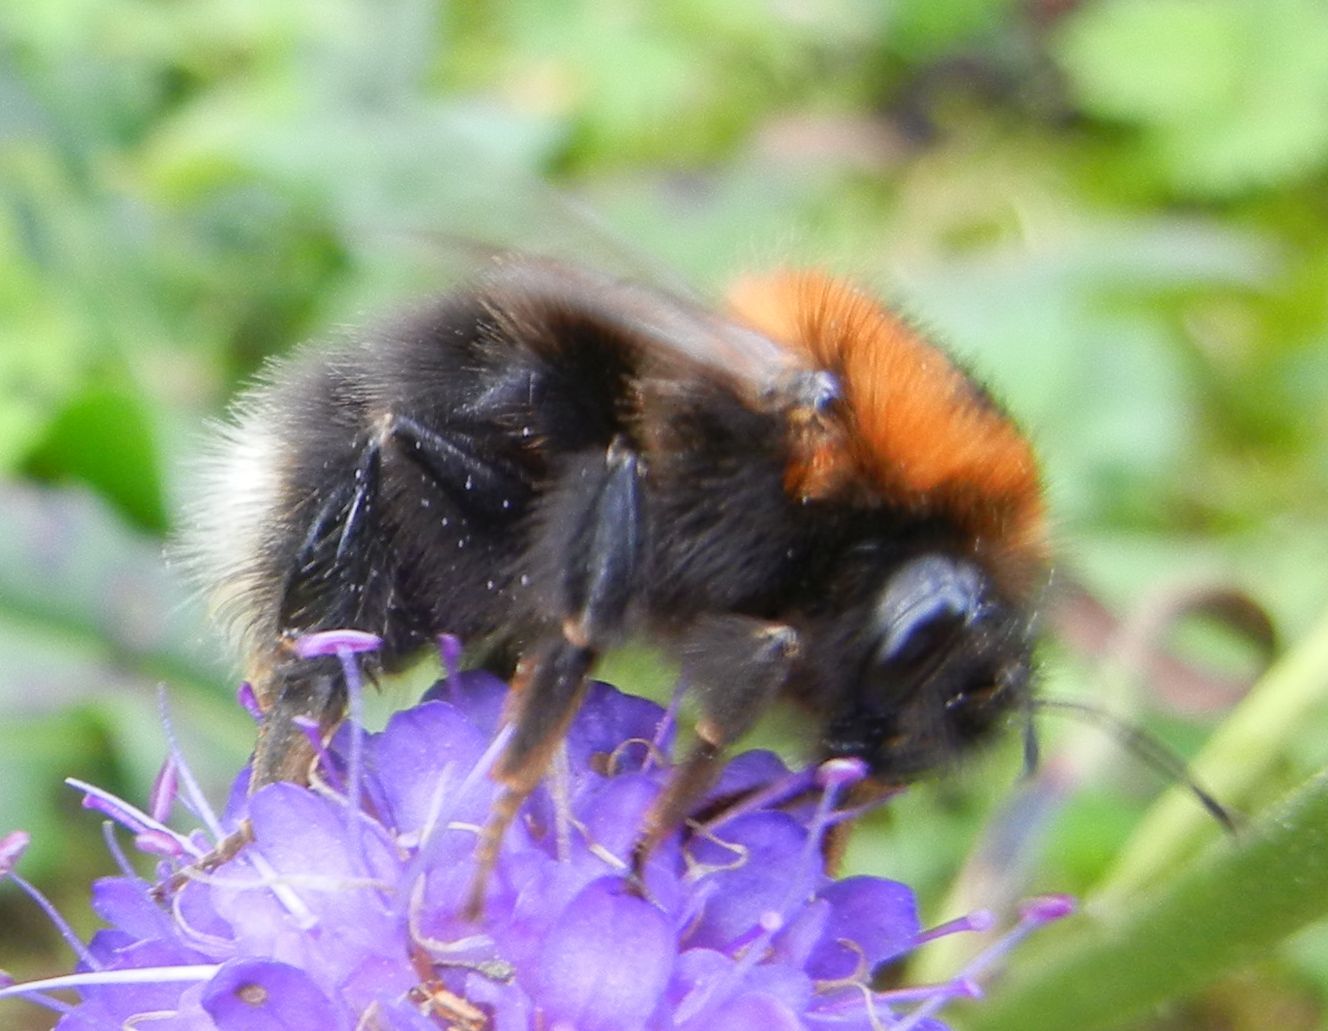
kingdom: Animalia
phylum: Arthropoda
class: Insecta
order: Hymenoptera
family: Apidae
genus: Bombus
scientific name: Bombus hypnorum
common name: New garden bumblebee
